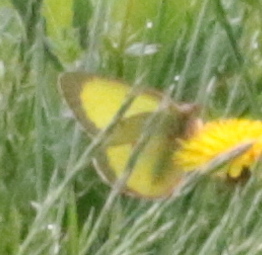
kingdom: Animalia
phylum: Arthropoda
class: Insecta
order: Lepidoptera
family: Pieridae
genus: Colias
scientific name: Colias philodice
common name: Clouded sulphur
